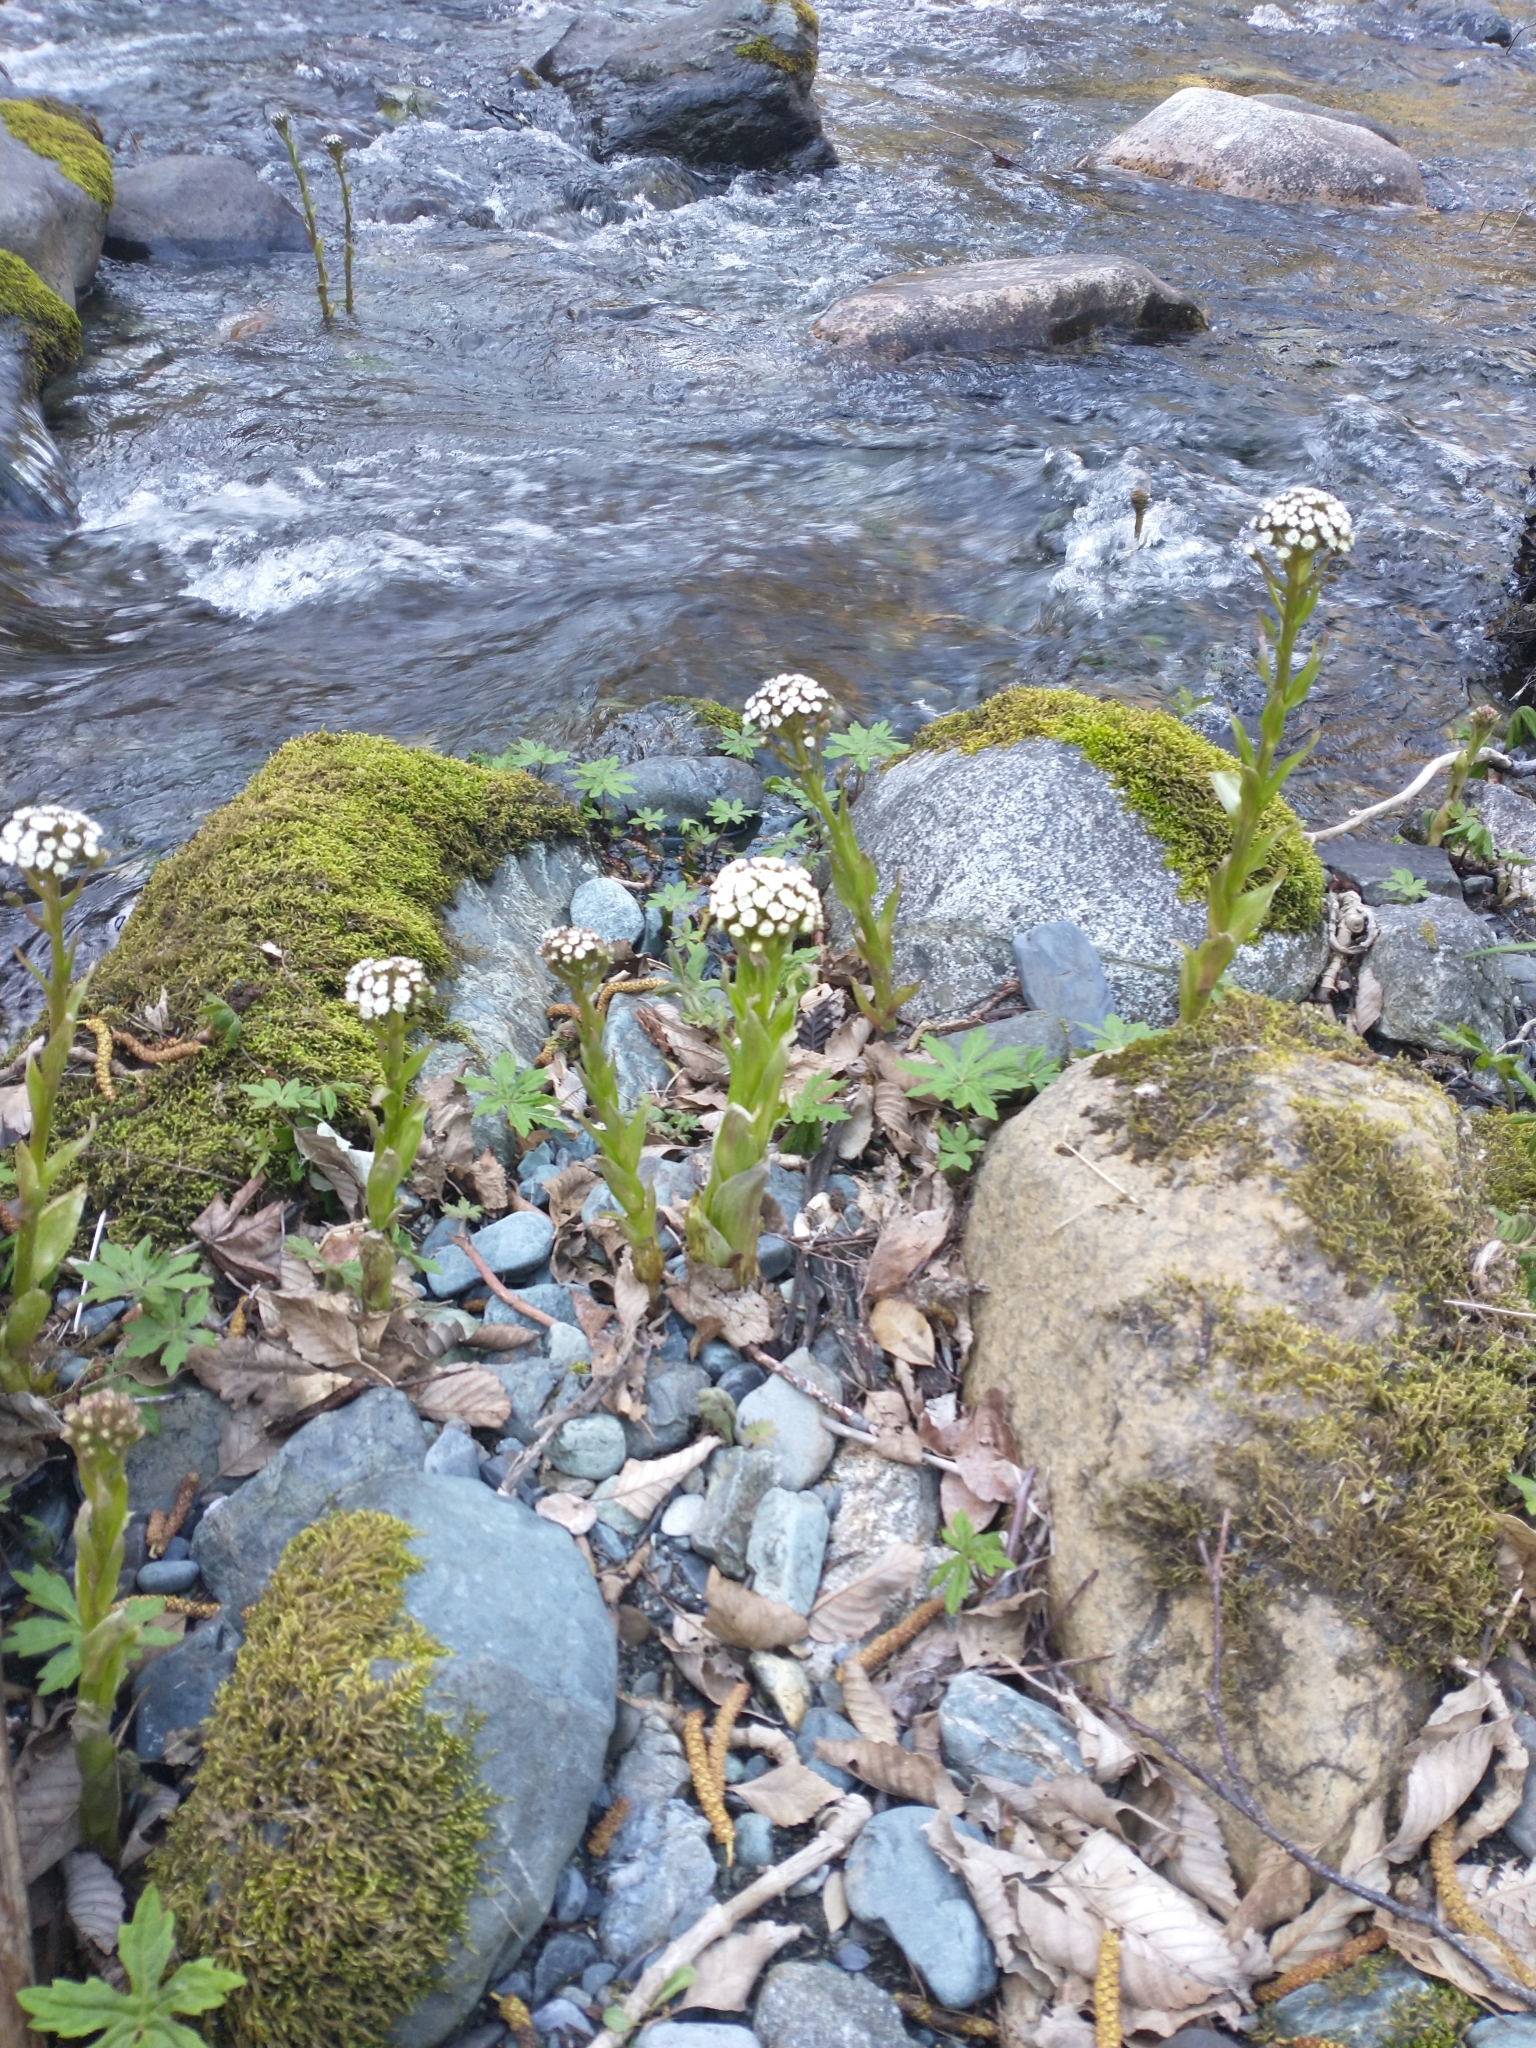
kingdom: Plantae
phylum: Tracheophyta
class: Magnoliopsida
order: Asterales
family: Asteraceae
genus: Petasites
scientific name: Petasites frigidus
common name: Arctic butterbur
